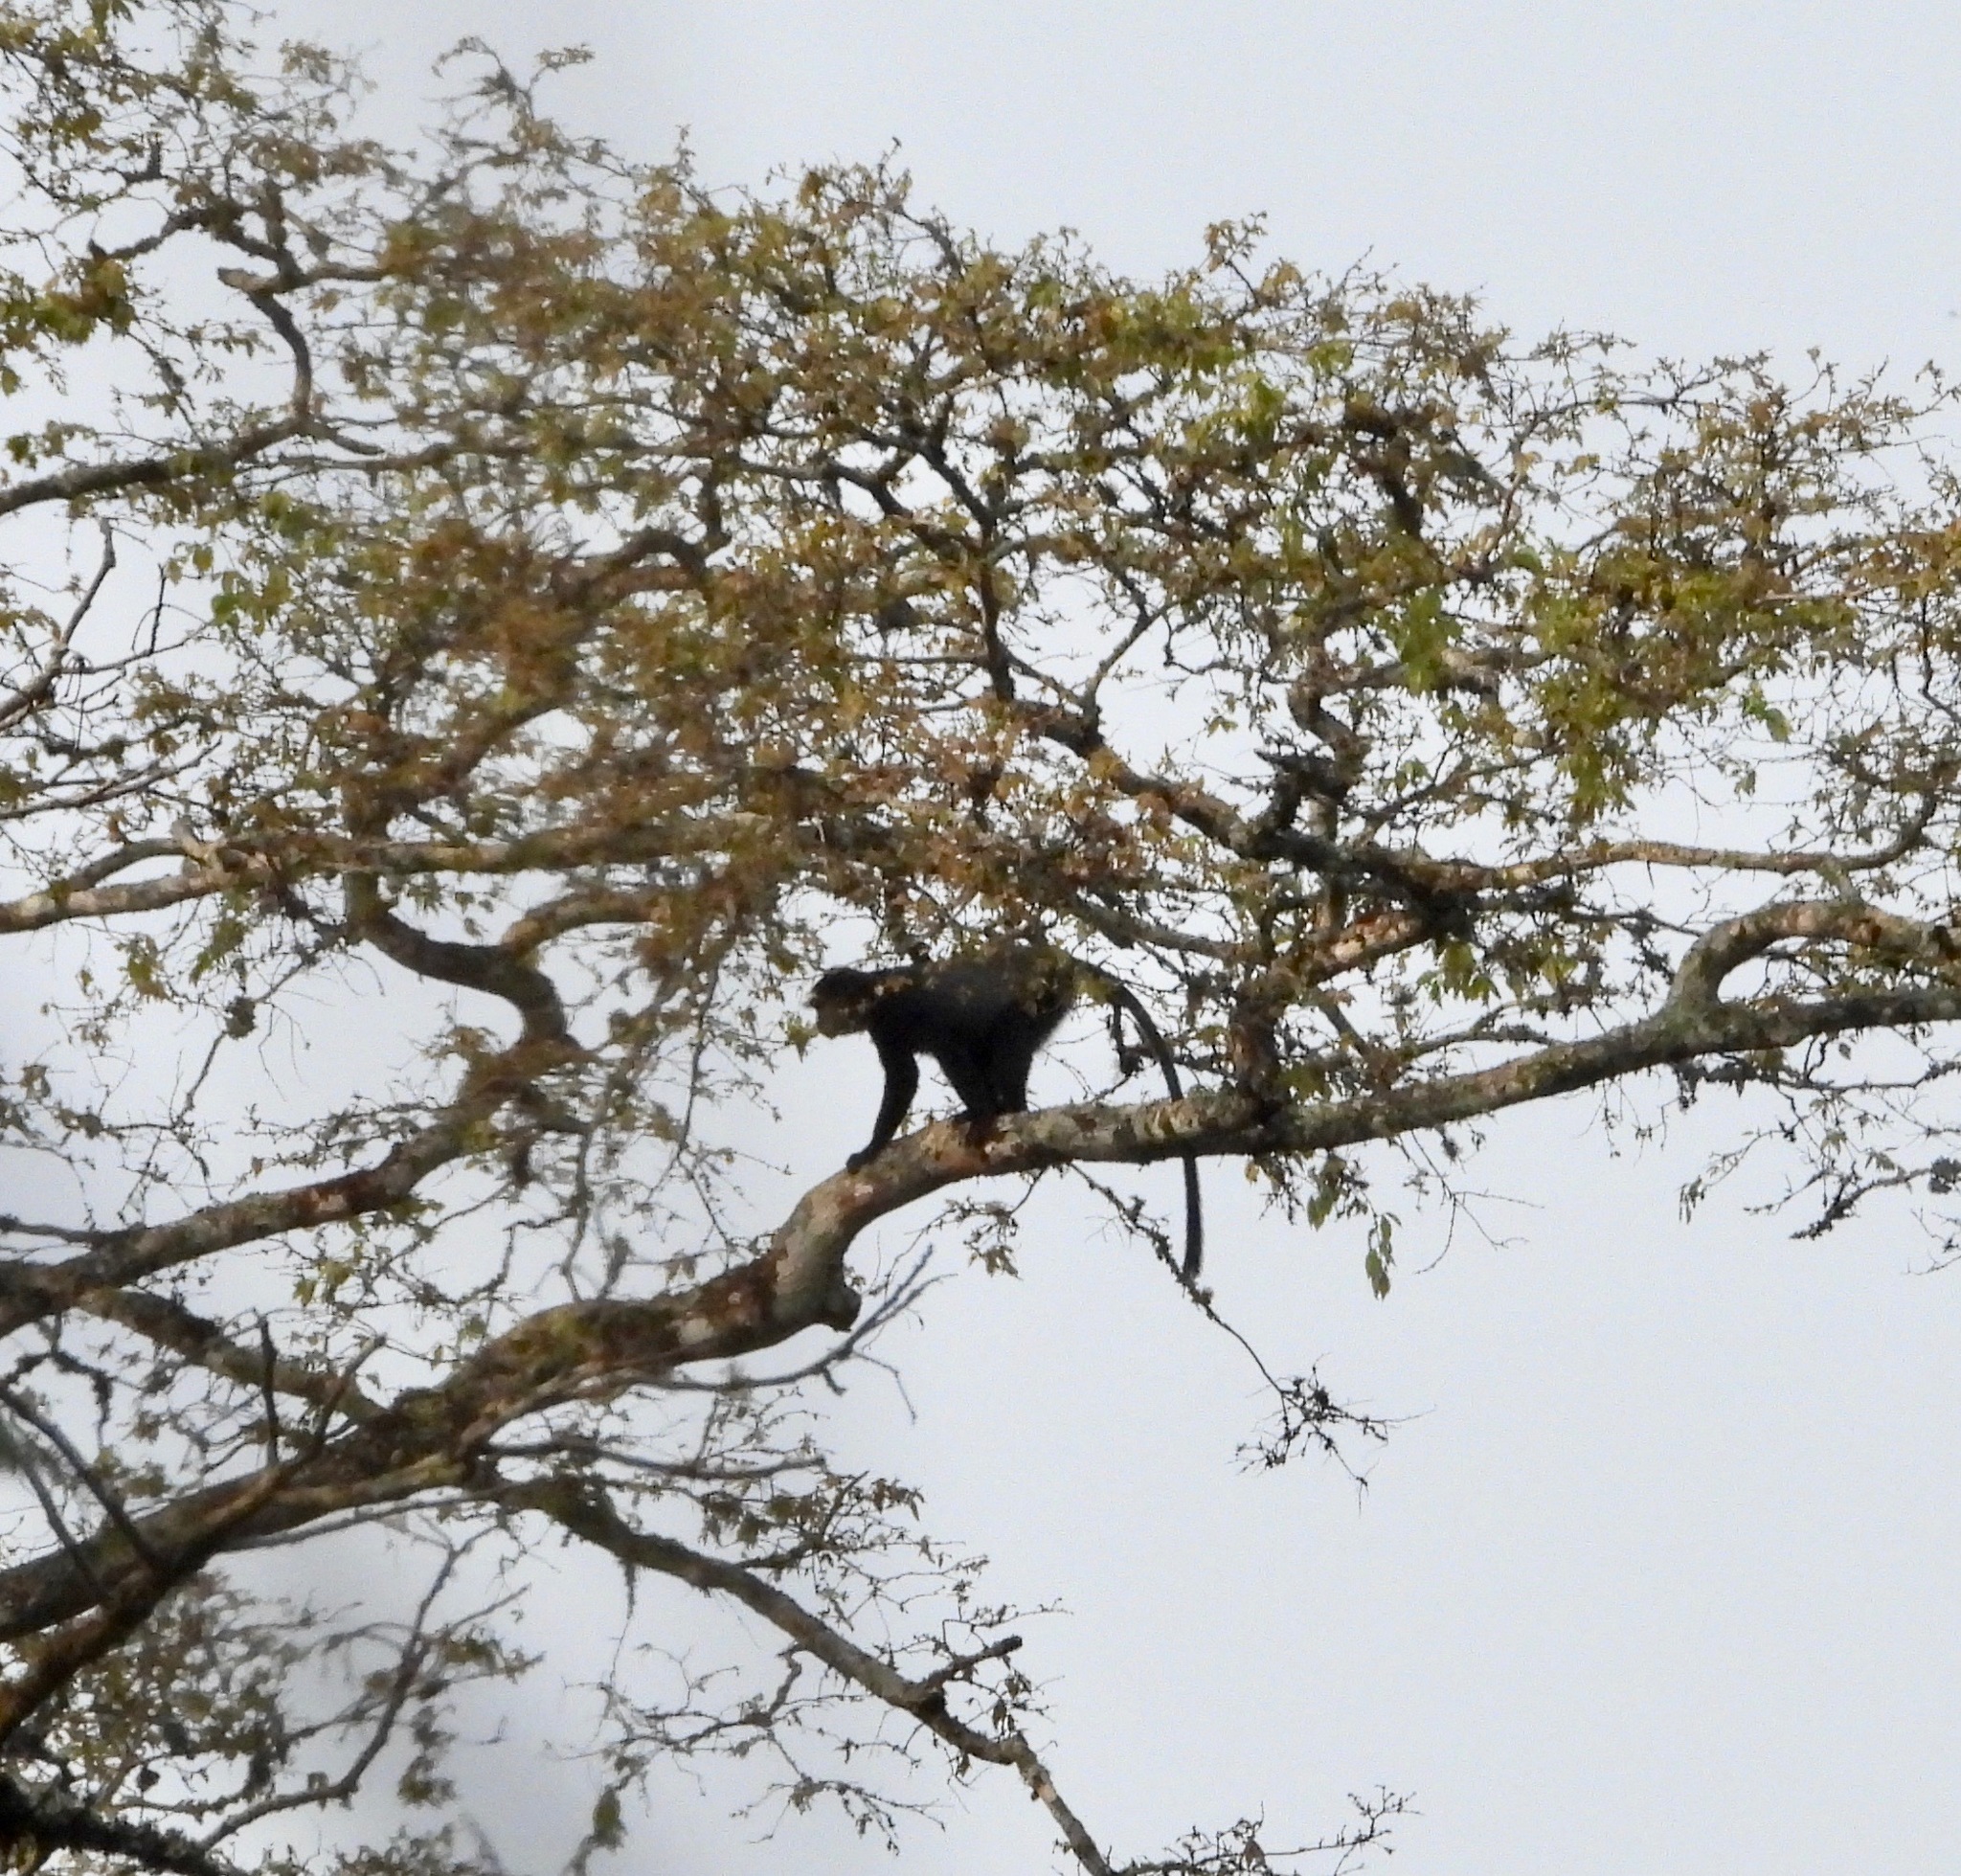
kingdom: Animalia
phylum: Chordata
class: Mammalia
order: Primates
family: Cercopithecidae
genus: Cercopithecus
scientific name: Cercopithecus mitis
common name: Blue monkey
